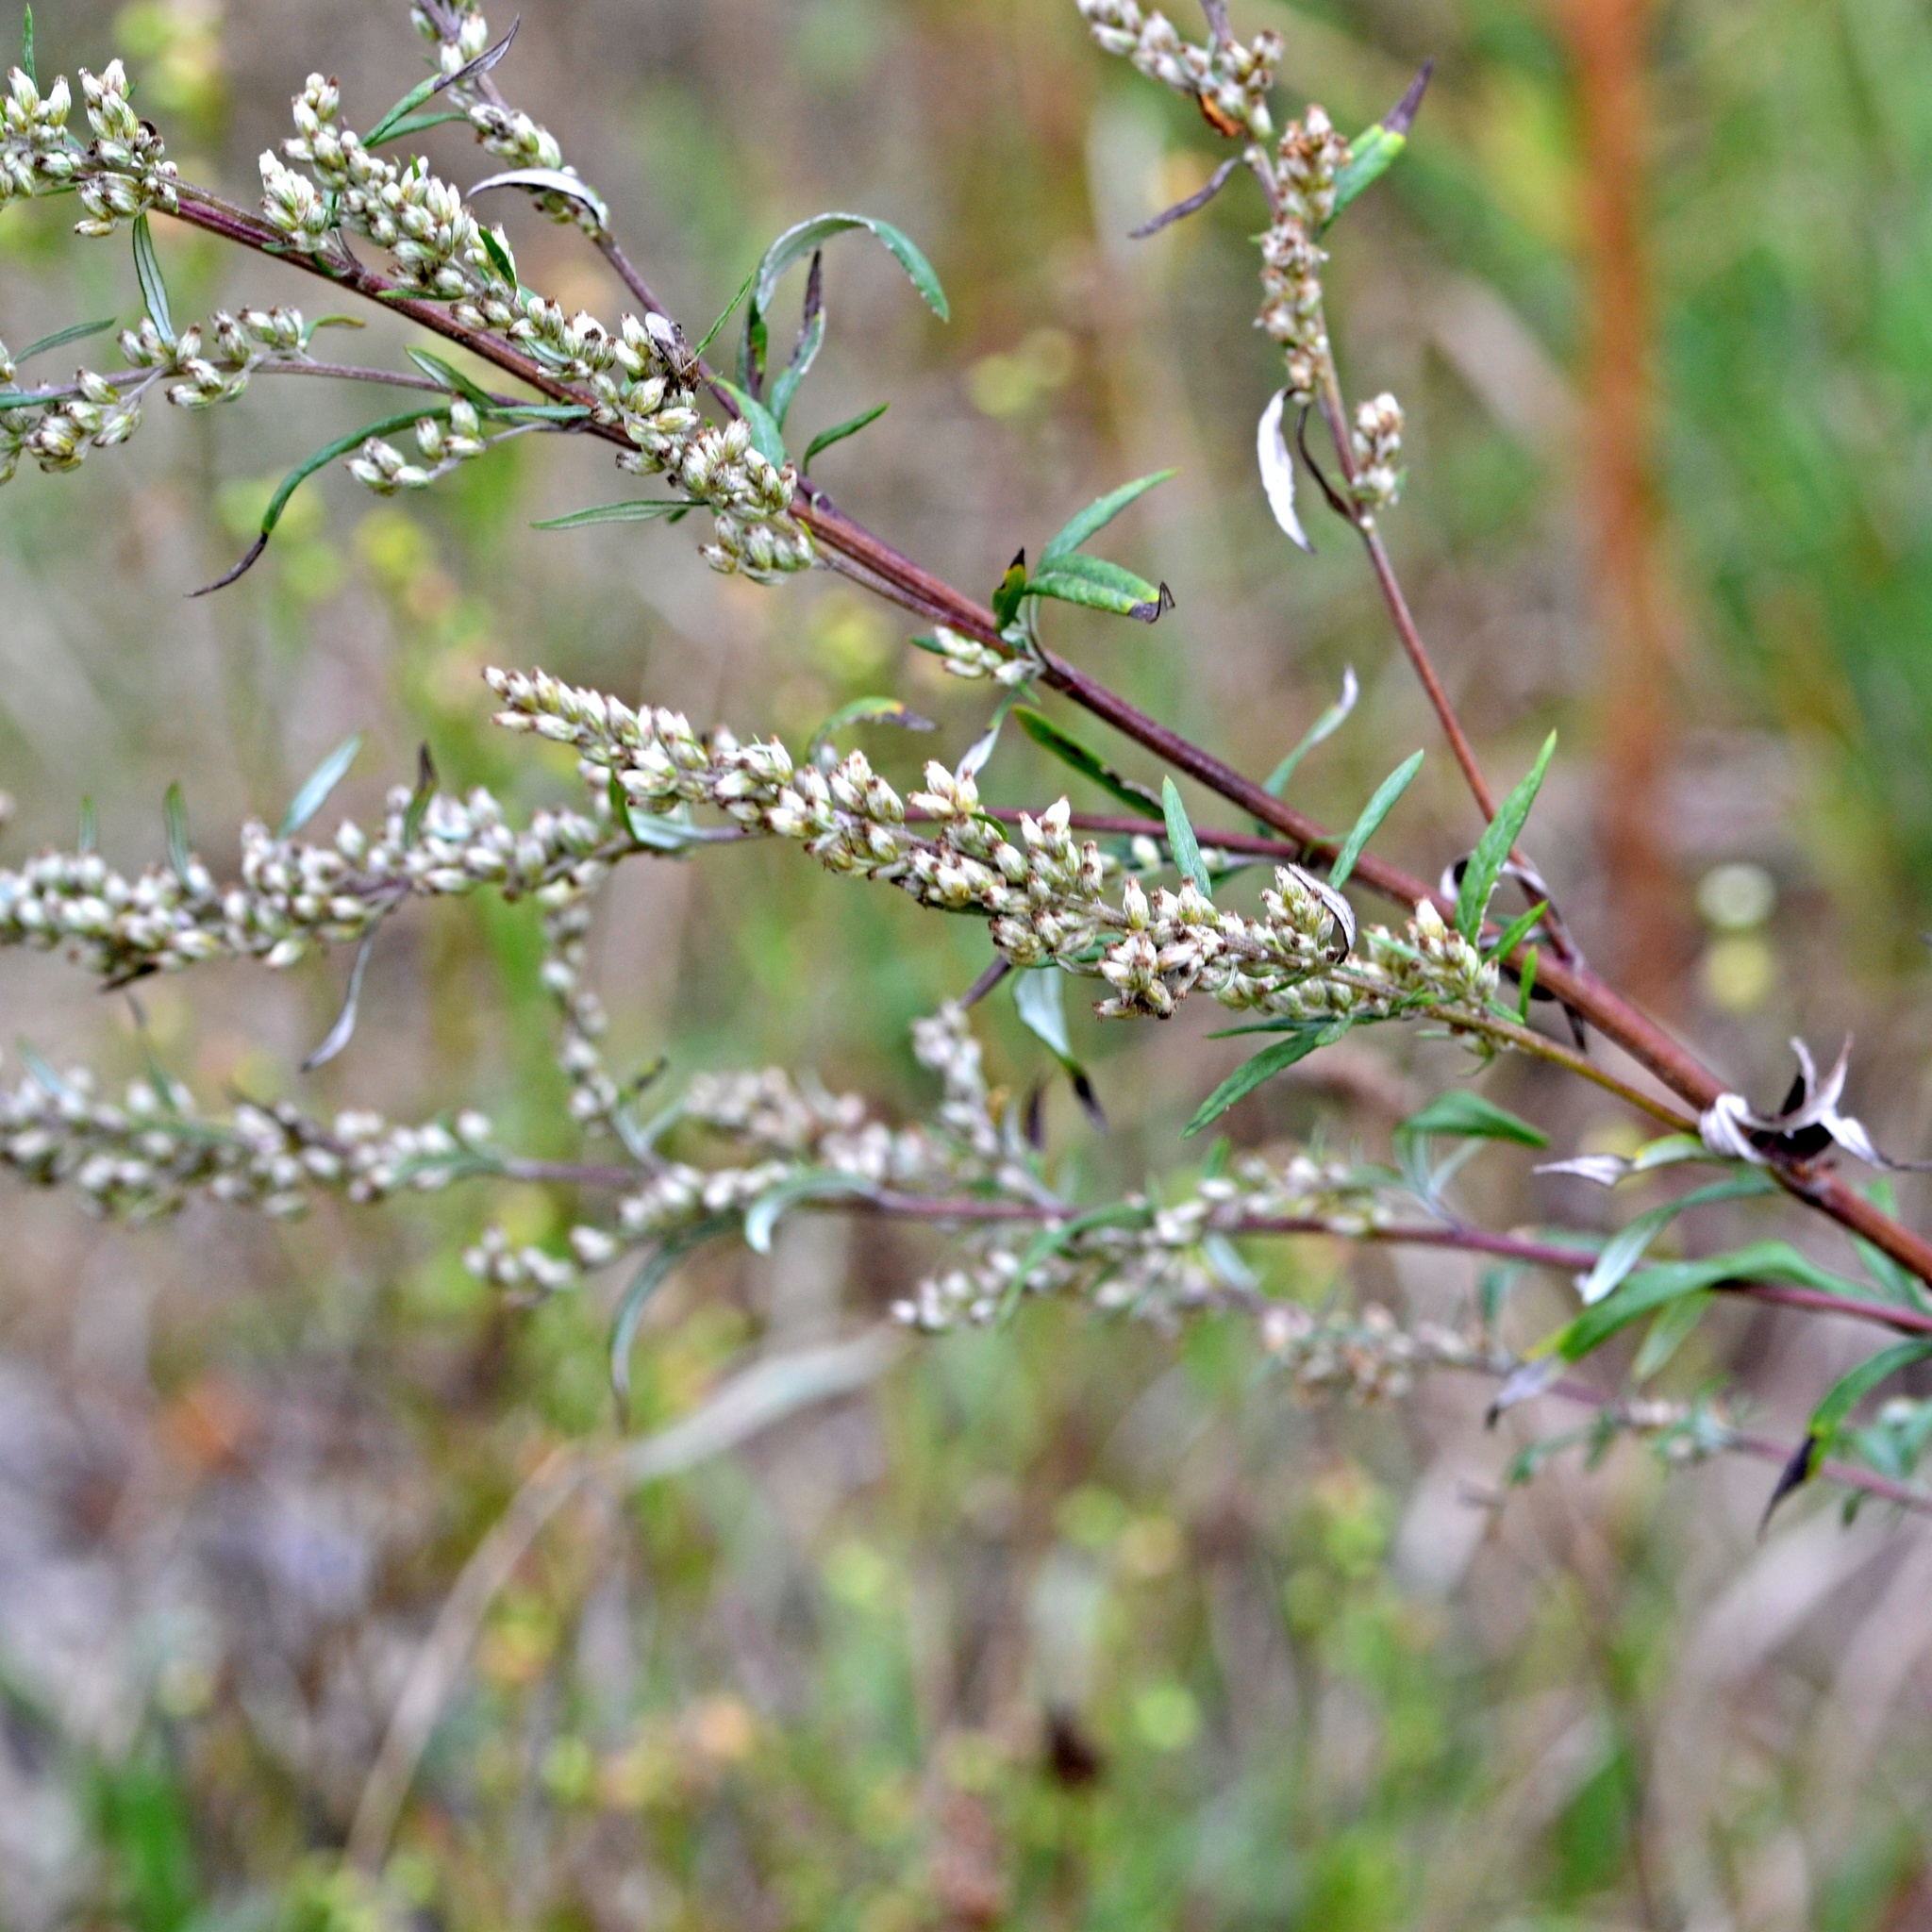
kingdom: Plantae
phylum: Tracheophyta
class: Magnoliopsida
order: Asterales
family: Asteraceae
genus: Artemisia
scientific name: Artemisia vulgaris
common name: Mugwort
